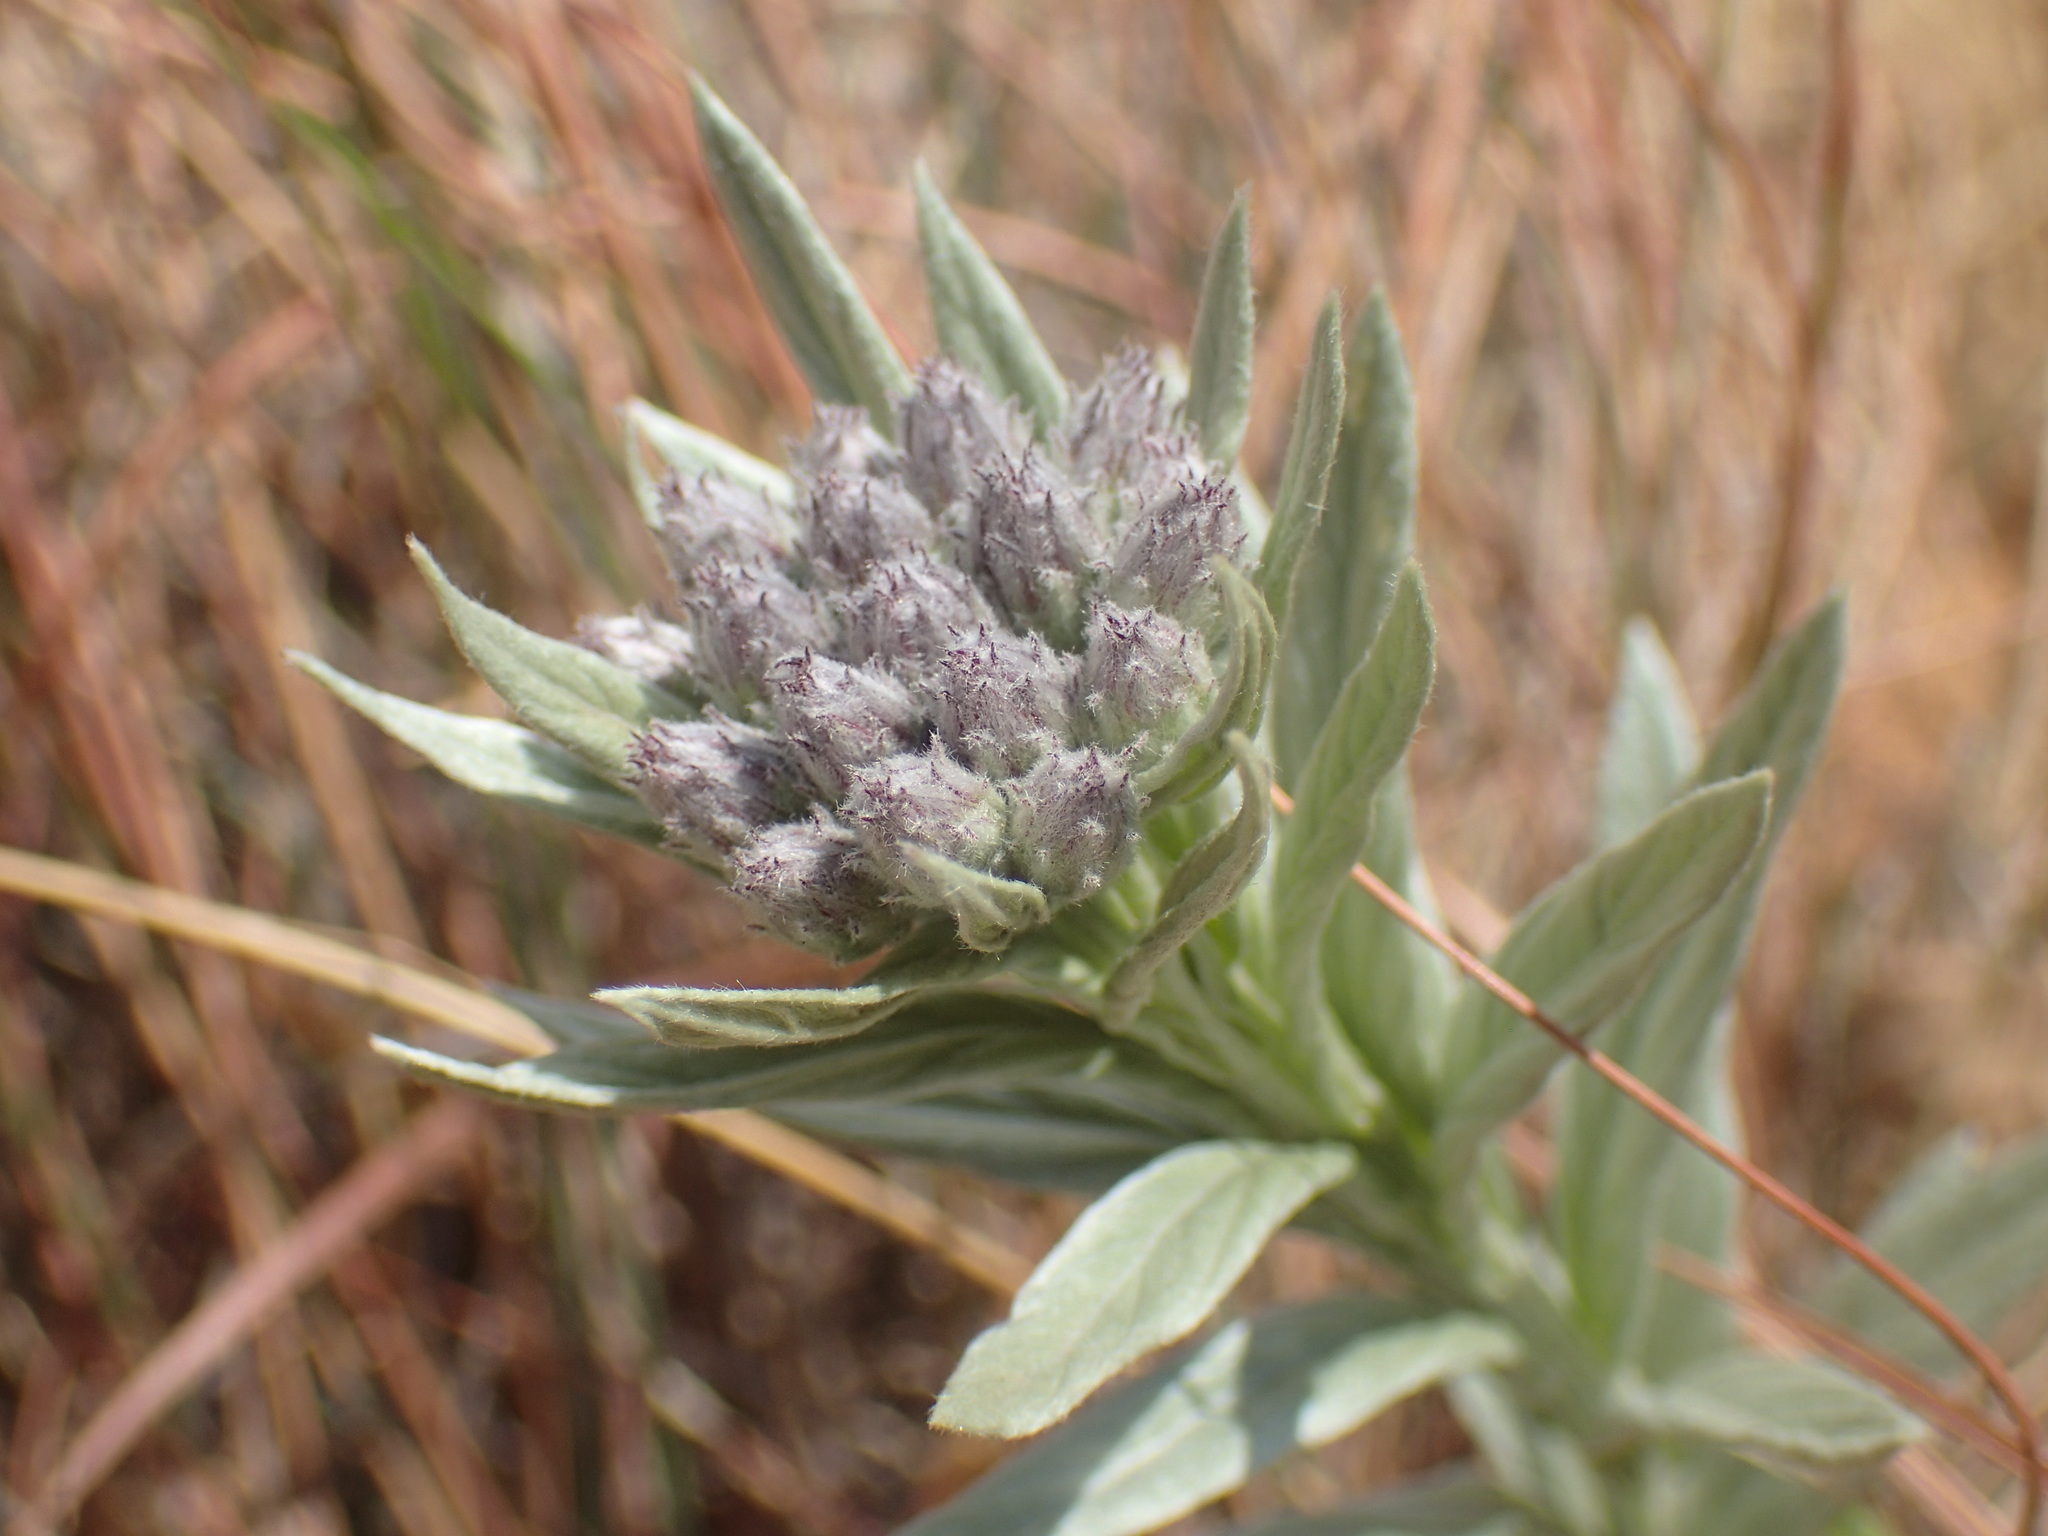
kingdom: Plantae
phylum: Tracheophyta
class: Magnoliopsida
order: Asterales
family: Asteraceae
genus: Hilliardiella
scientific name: Hilliardiella aristata
